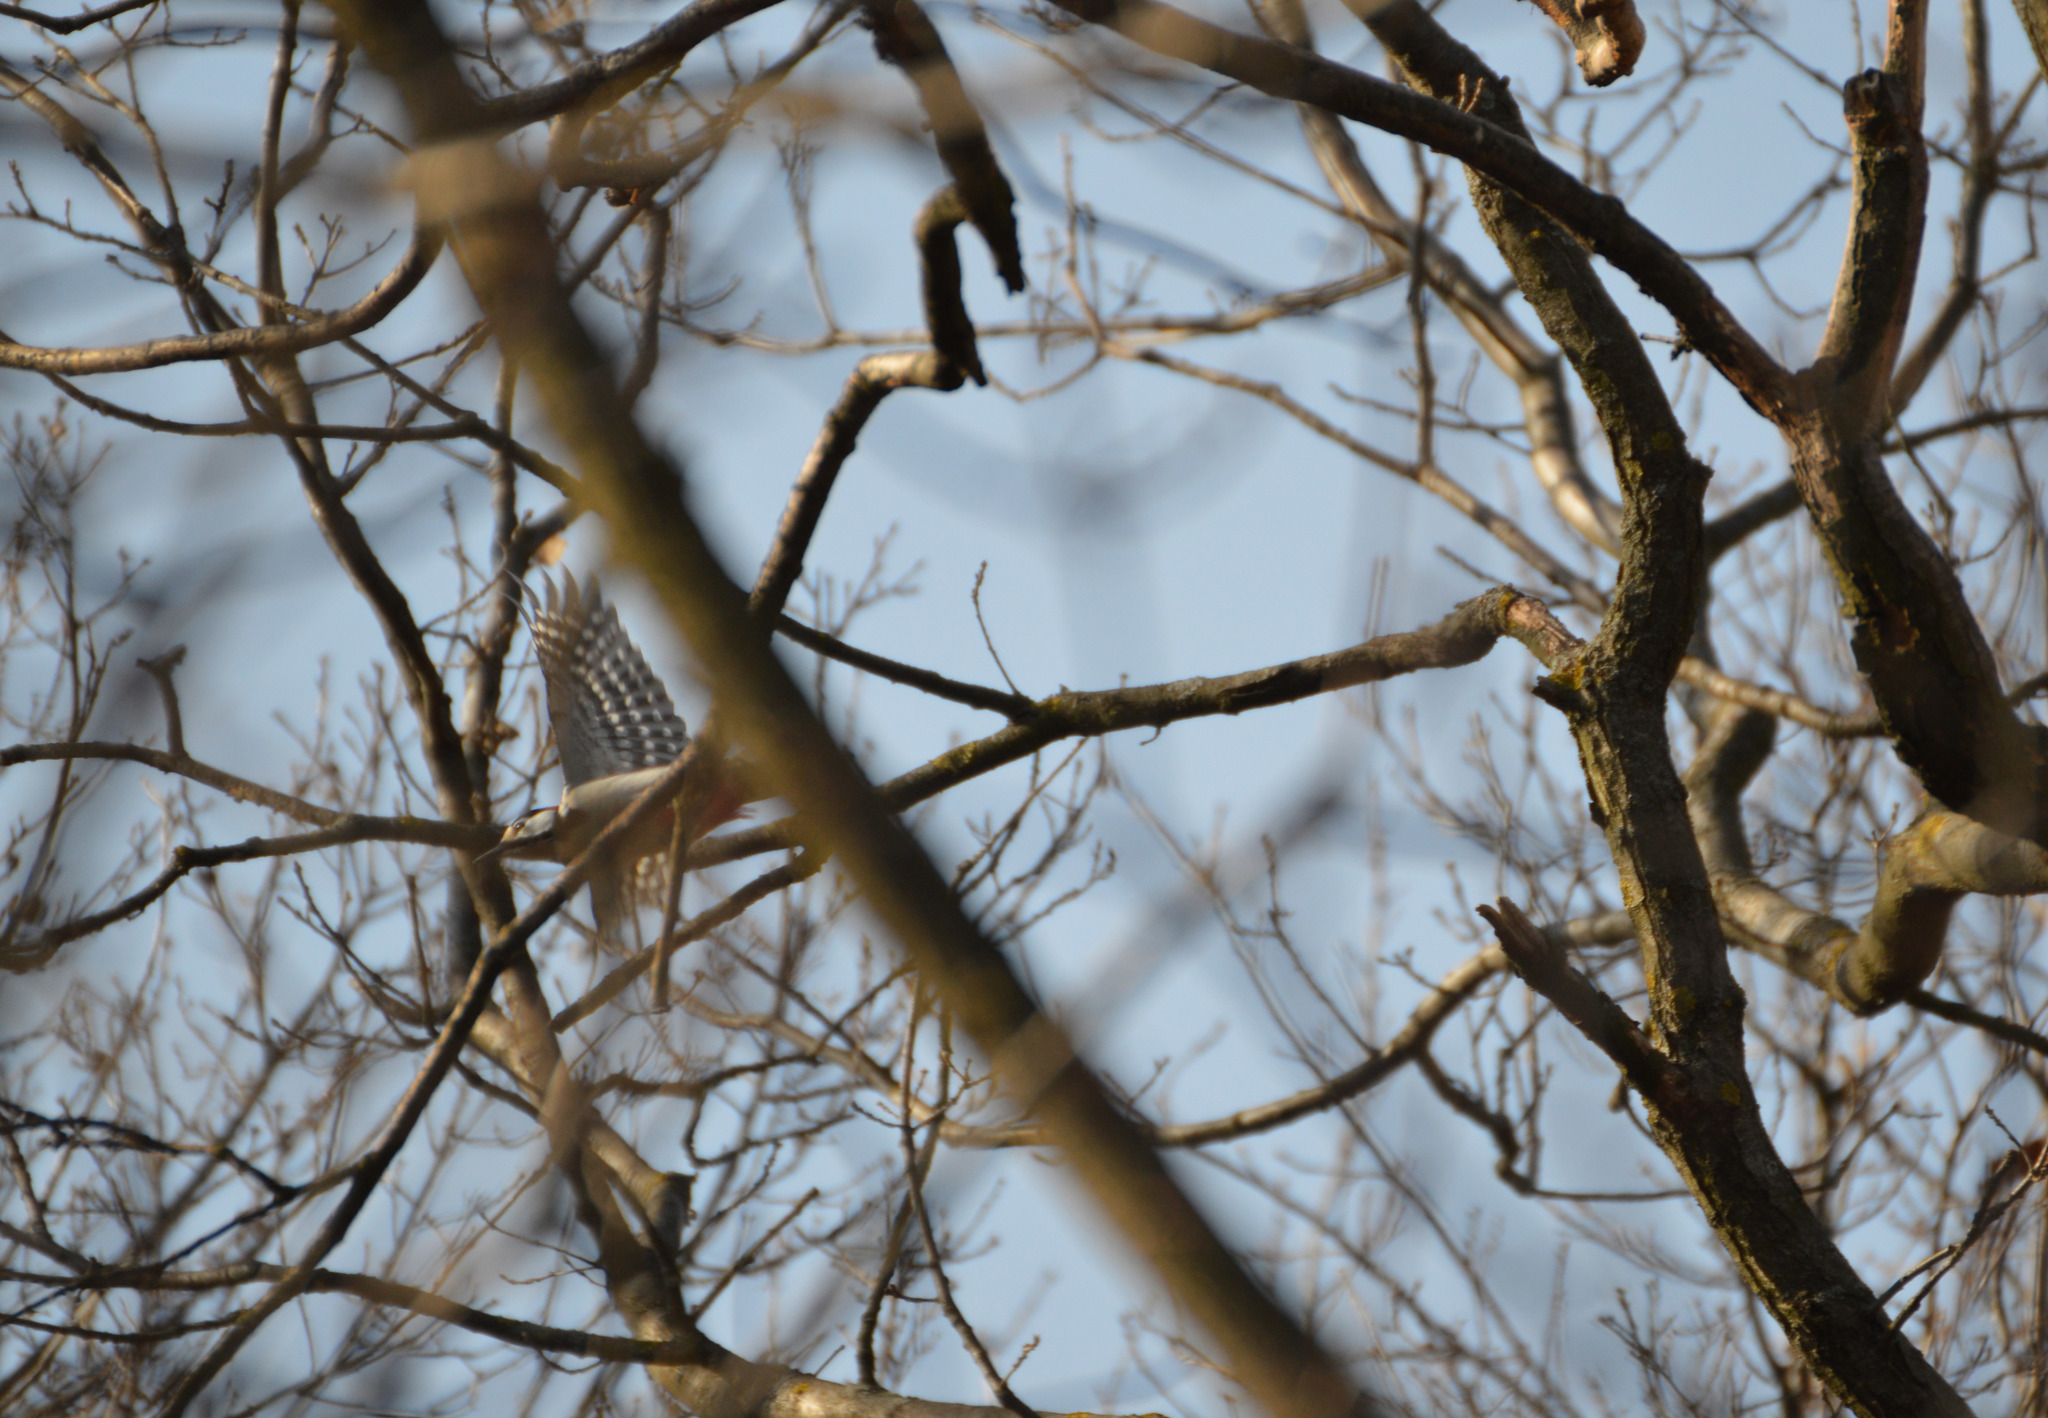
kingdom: Animalia
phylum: Chordata
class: Aves
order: Piciformes
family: Picidae
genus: Dendrocopos
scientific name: Dendrocopos major
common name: Great spotted woodpecker
